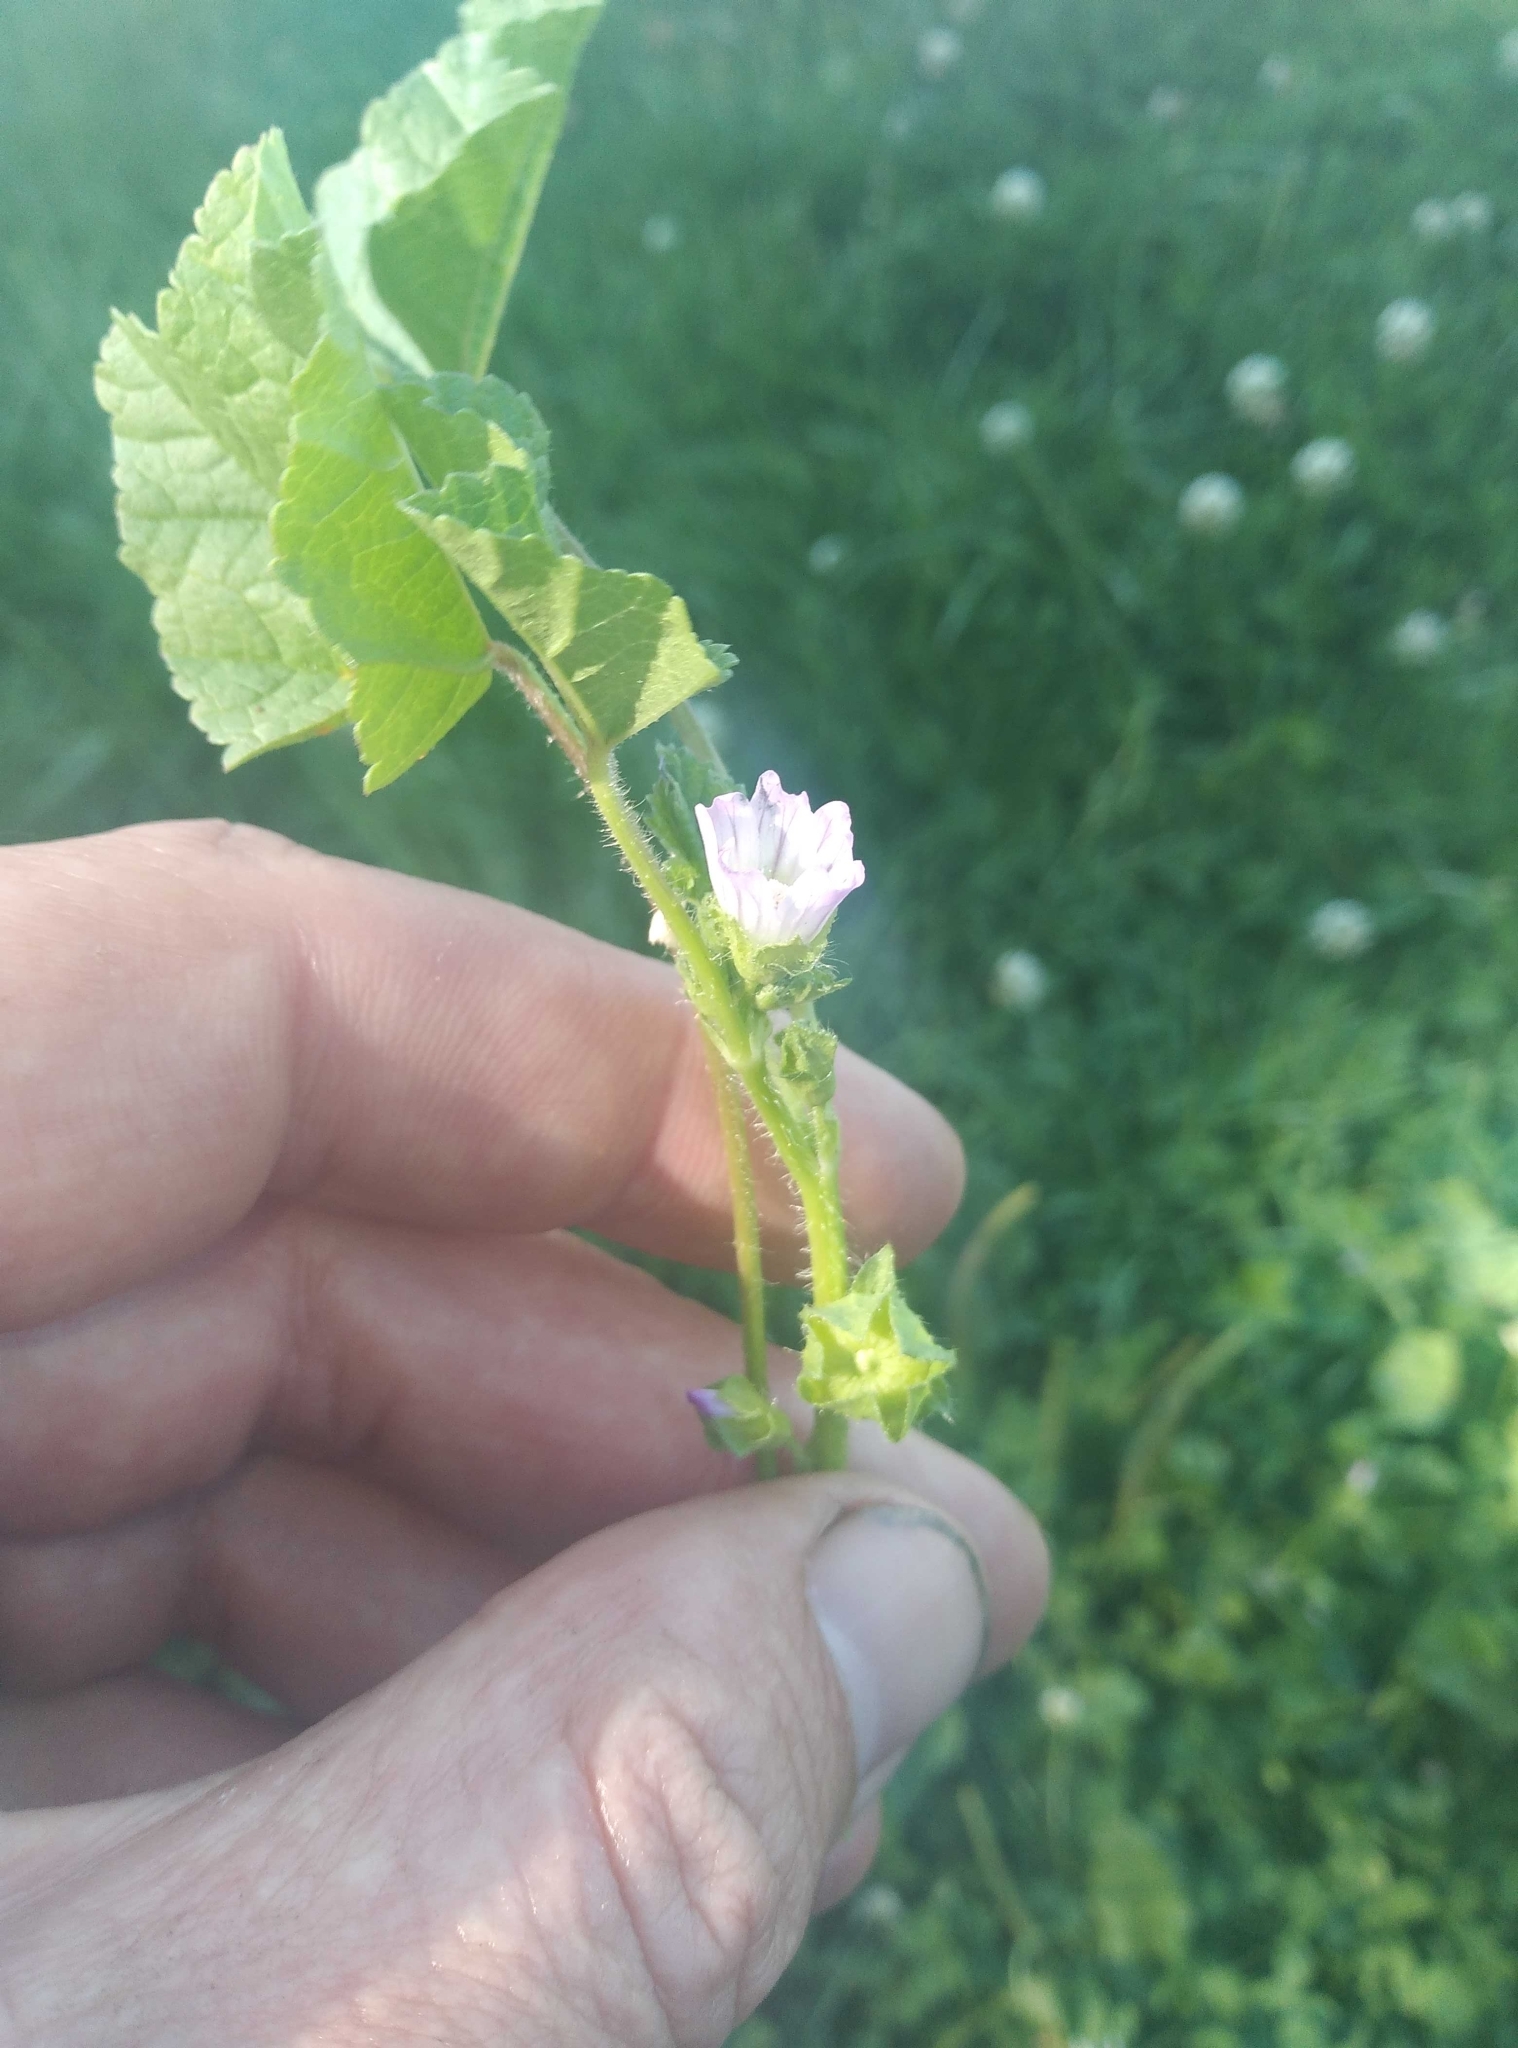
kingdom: Plantae
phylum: Tracheophyta
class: Magnoliopsida
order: Malvales
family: Malvaceae
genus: Malva
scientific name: Malva nicaeensis
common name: French mallow
